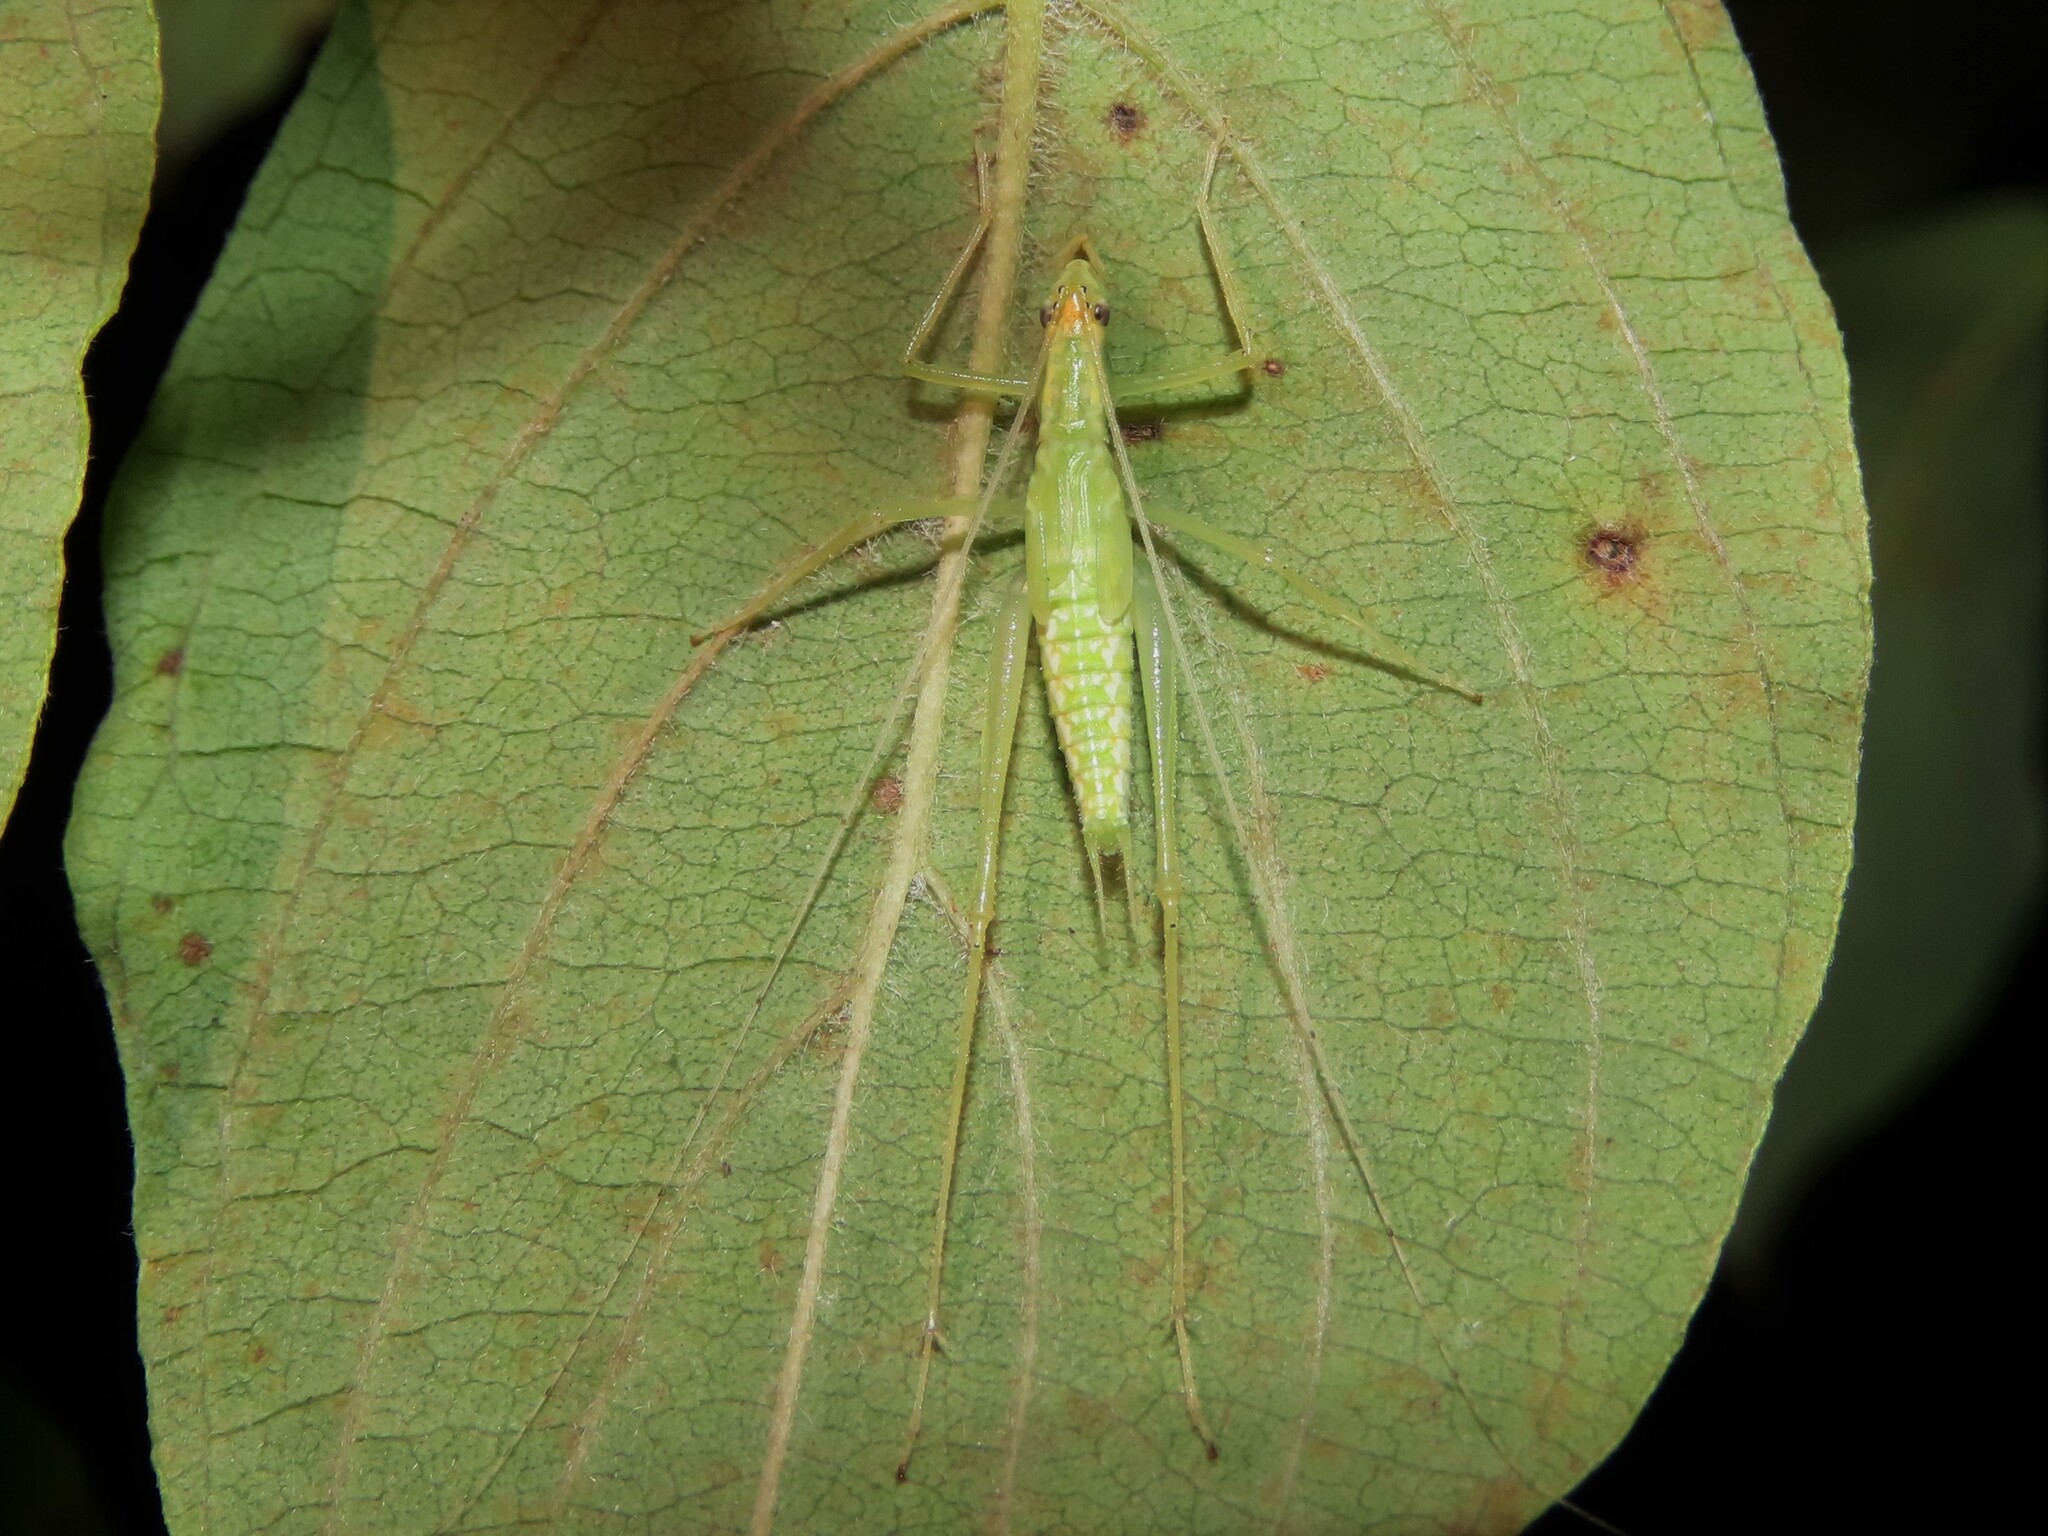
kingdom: Animalia
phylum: Arthropoda
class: Insecta
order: Orthoptera
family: Gryllidae
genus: Oecanthus
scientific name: Oecanthus niveus
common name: Narrow-winged tree cricket
